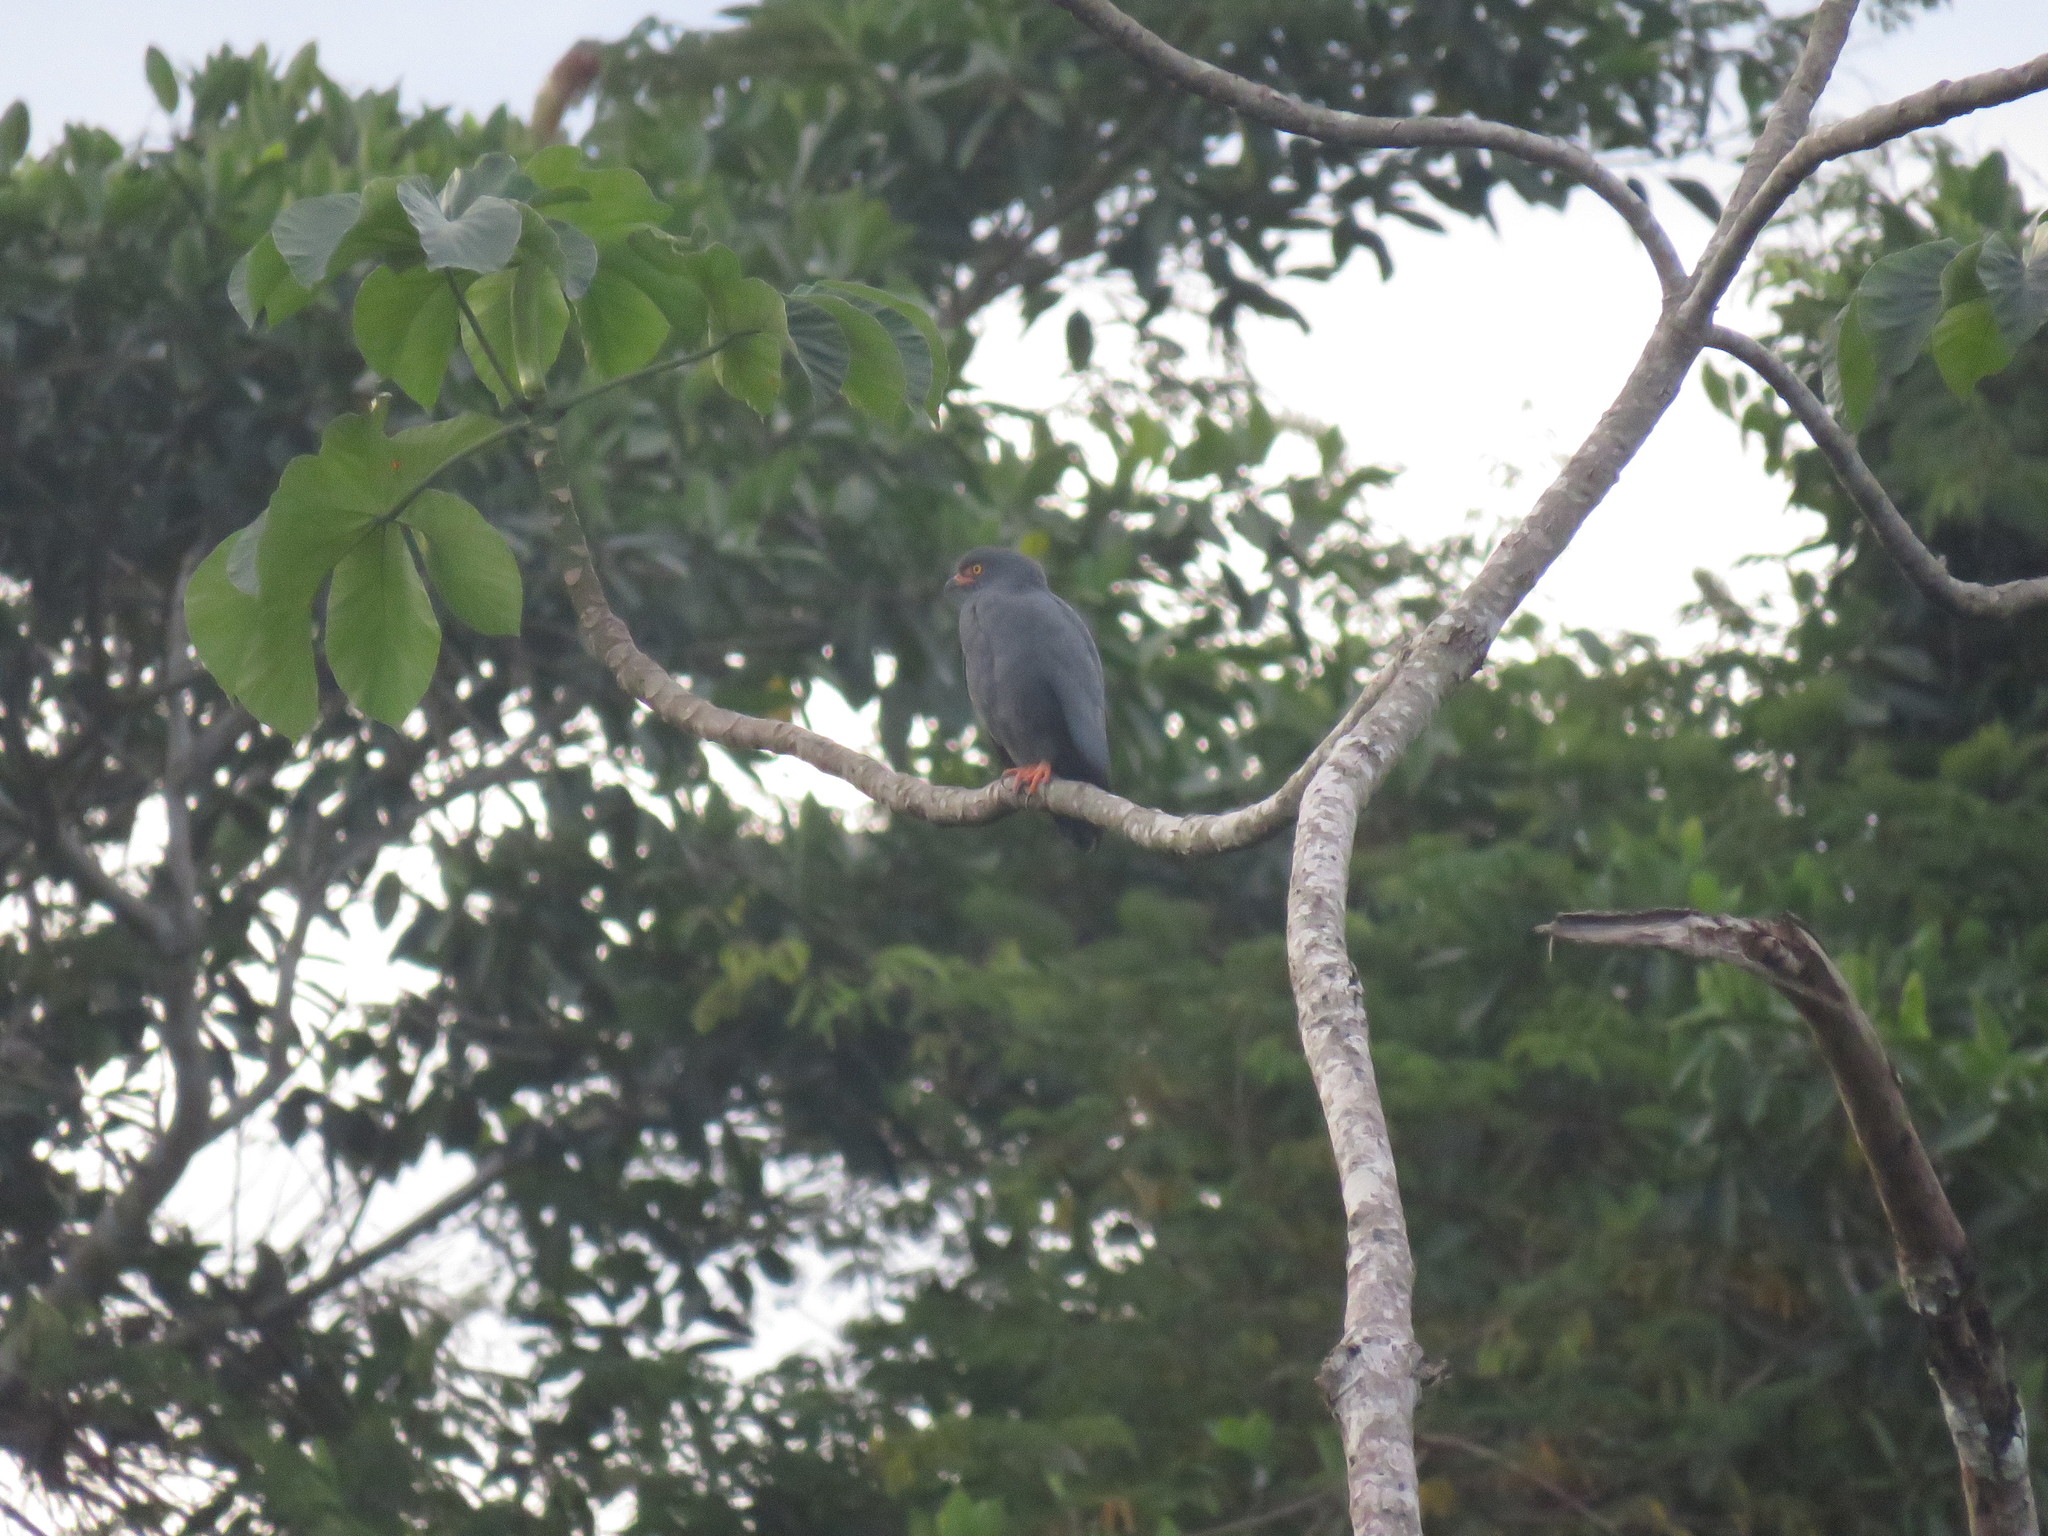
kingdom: Animalia
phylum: Chordata
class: Aves
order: Accipitriformes
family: Accipitridae
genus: Leucopternis
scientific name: Leucopternis schistaceus
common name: Slate-colored hawk
